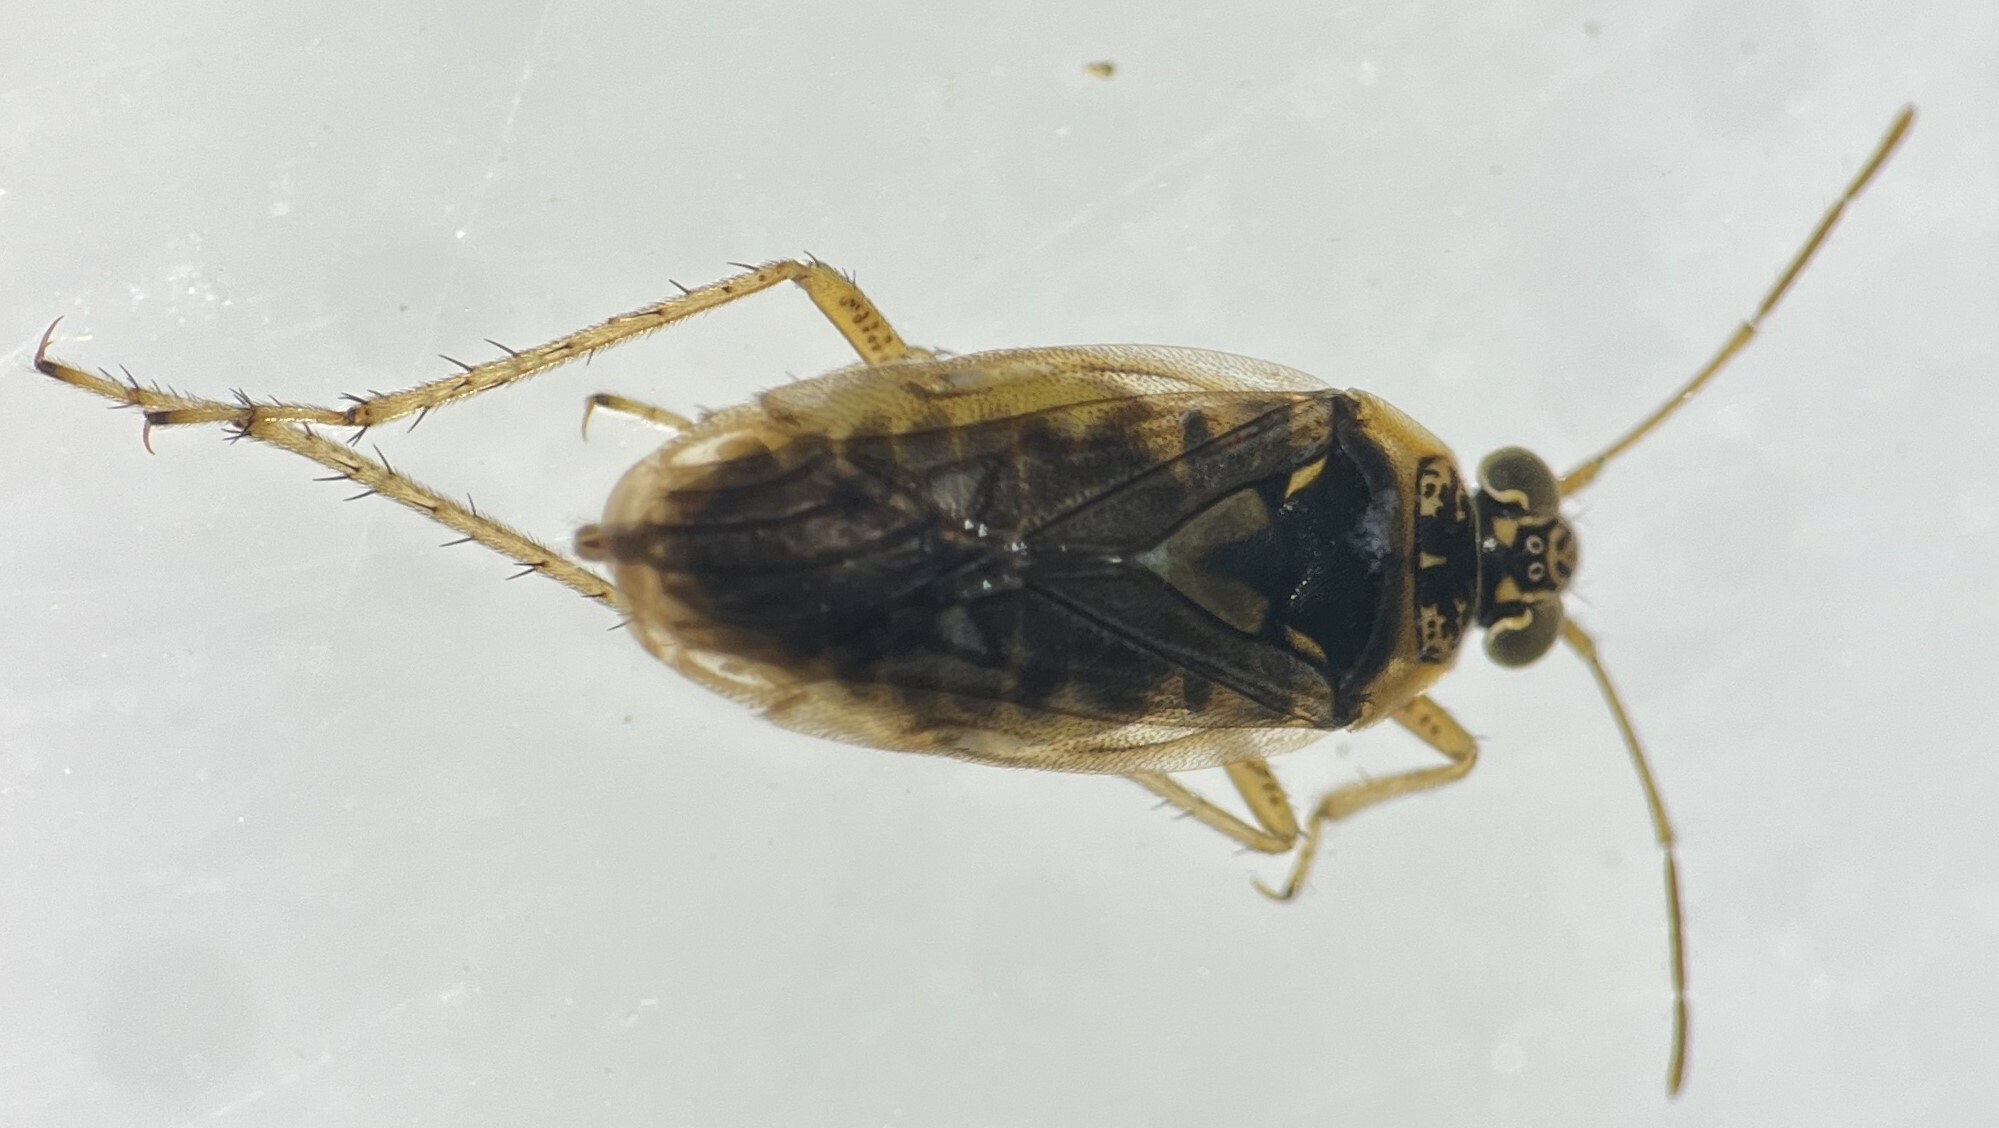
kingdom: Animalia
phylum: Arthropoda
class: Insecta
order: Hemiptera
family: Saldidae
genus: Pentacora
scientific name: Pentacora sphacelata
